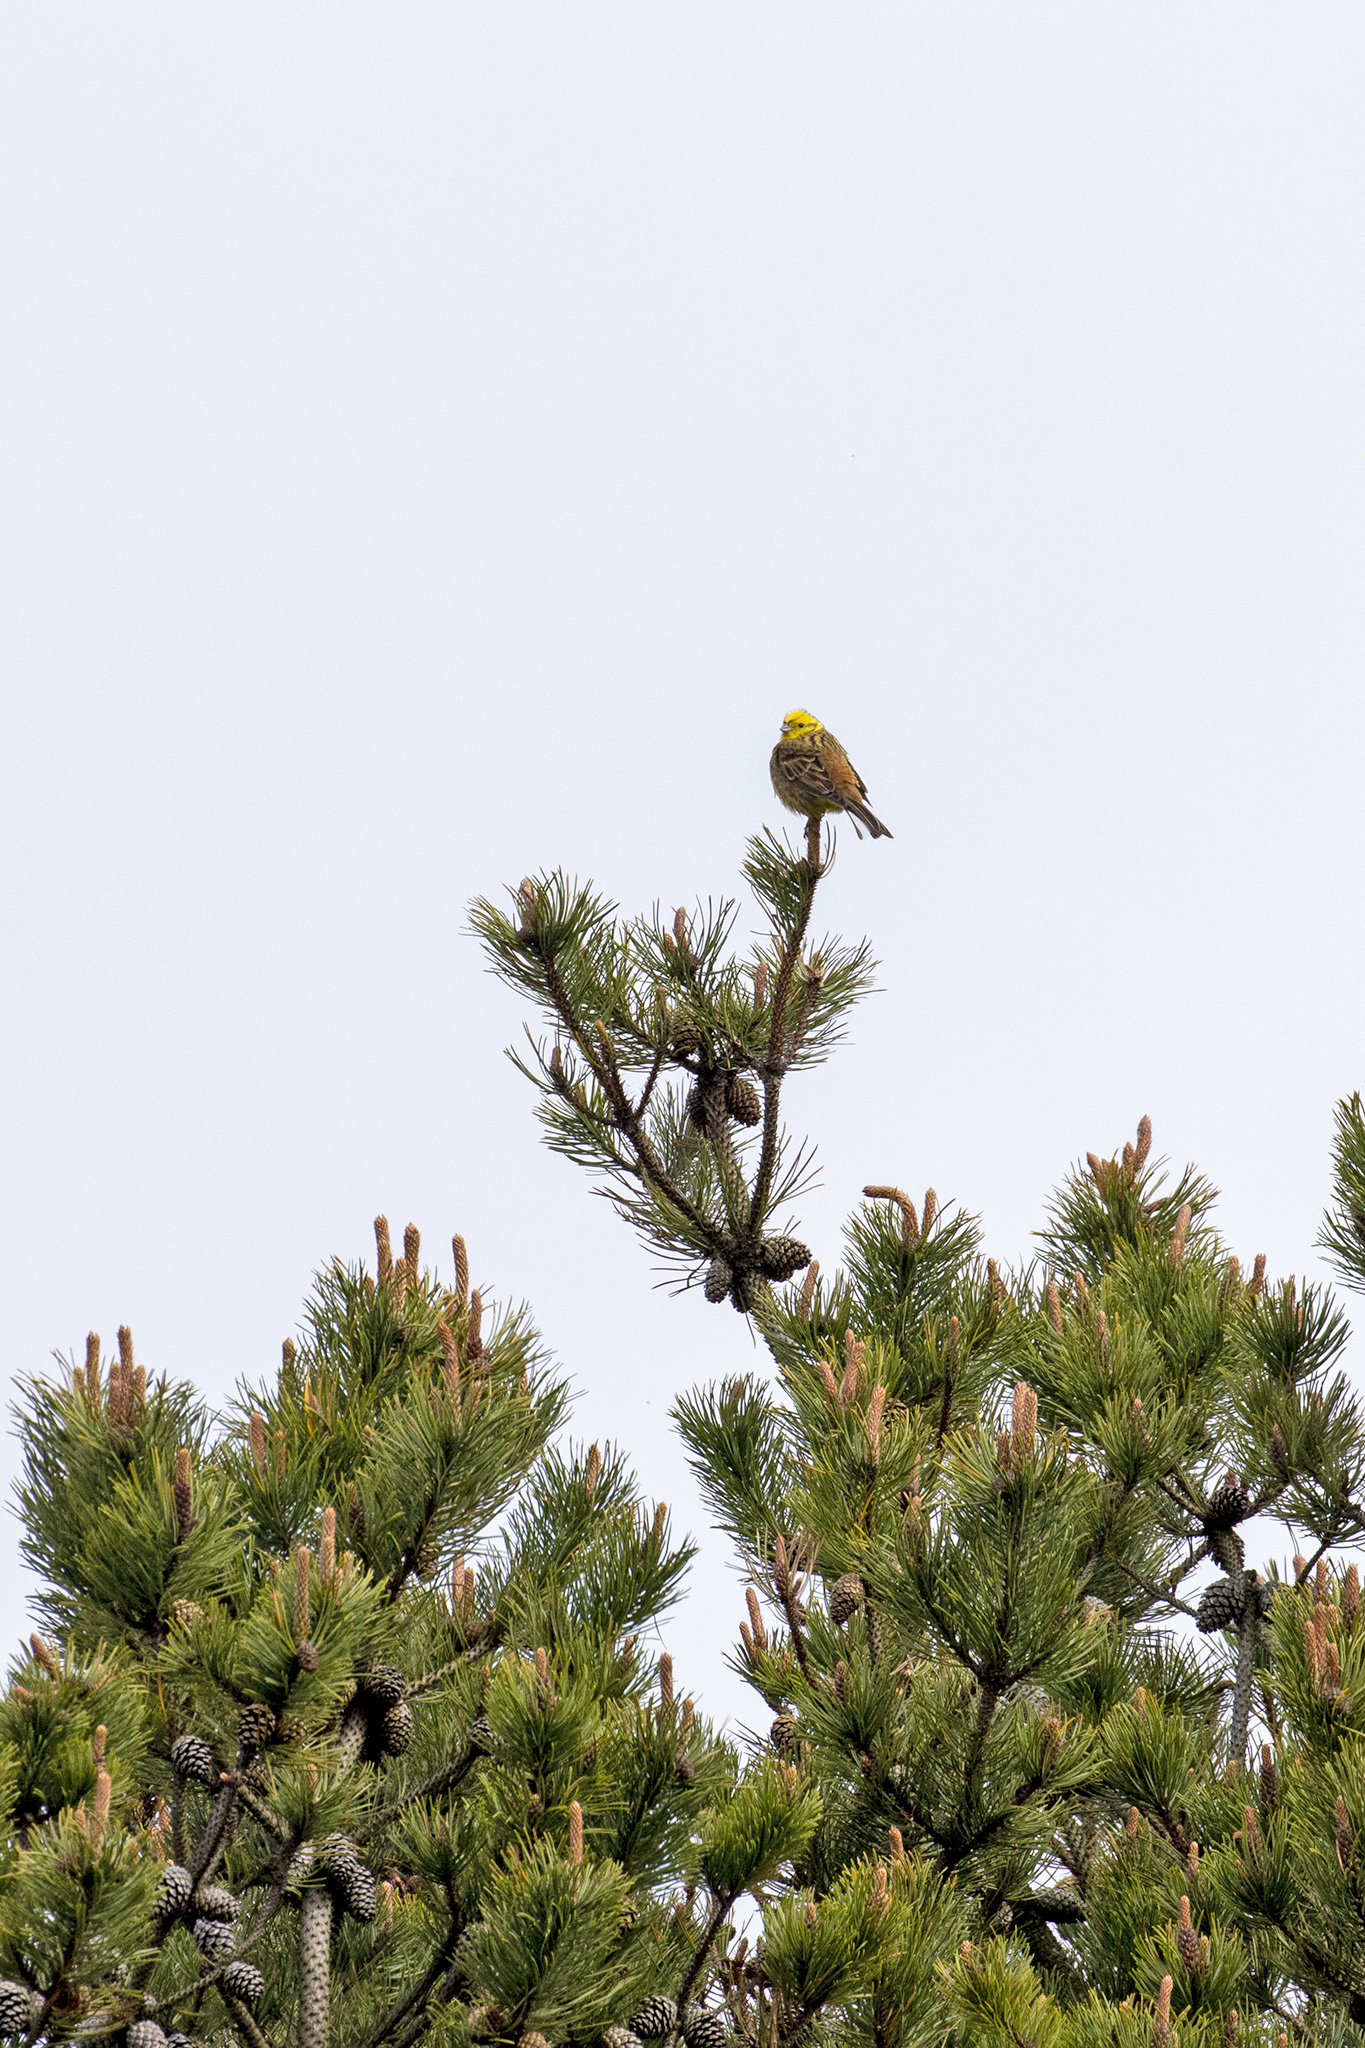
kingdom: Animalia
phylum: Chordata
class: Aves
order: Passeriformes
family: Emberizidae
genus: Emberiza
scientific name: Emberiza citrinella
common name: Yellowhammer
